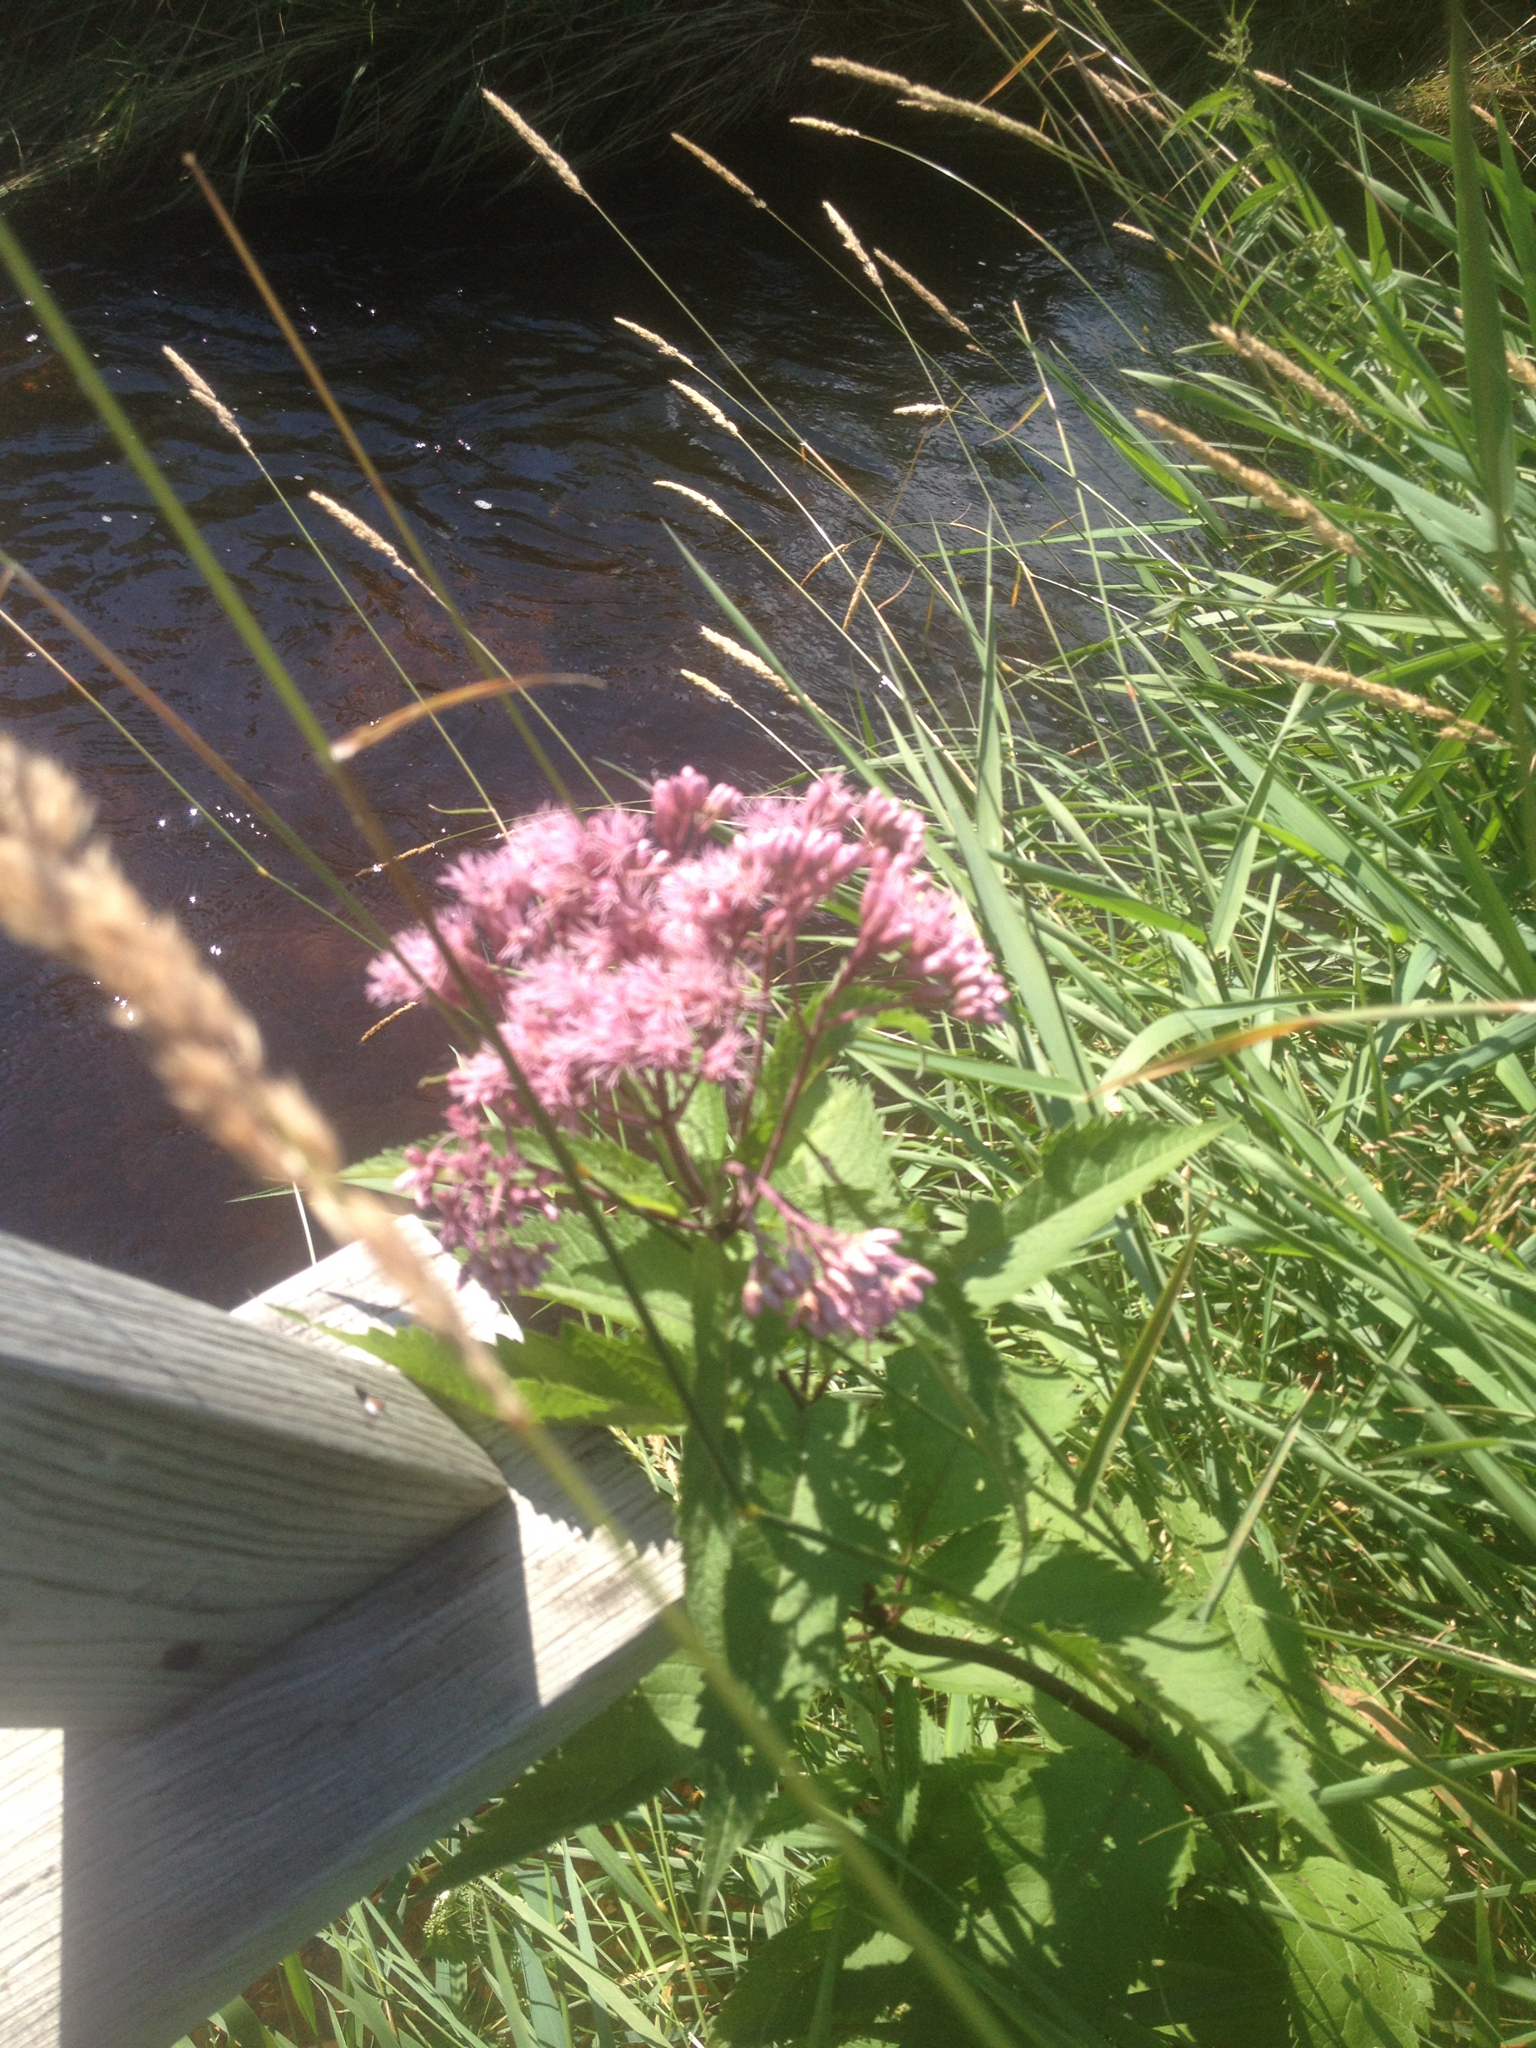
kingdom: Plantae
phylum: Tracheophyta
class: Magnoliopsida
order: Asterales
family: Asteraceae
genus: Eutrochium
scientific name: Eutrochium maculatum
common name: Spotted joe pye weed
